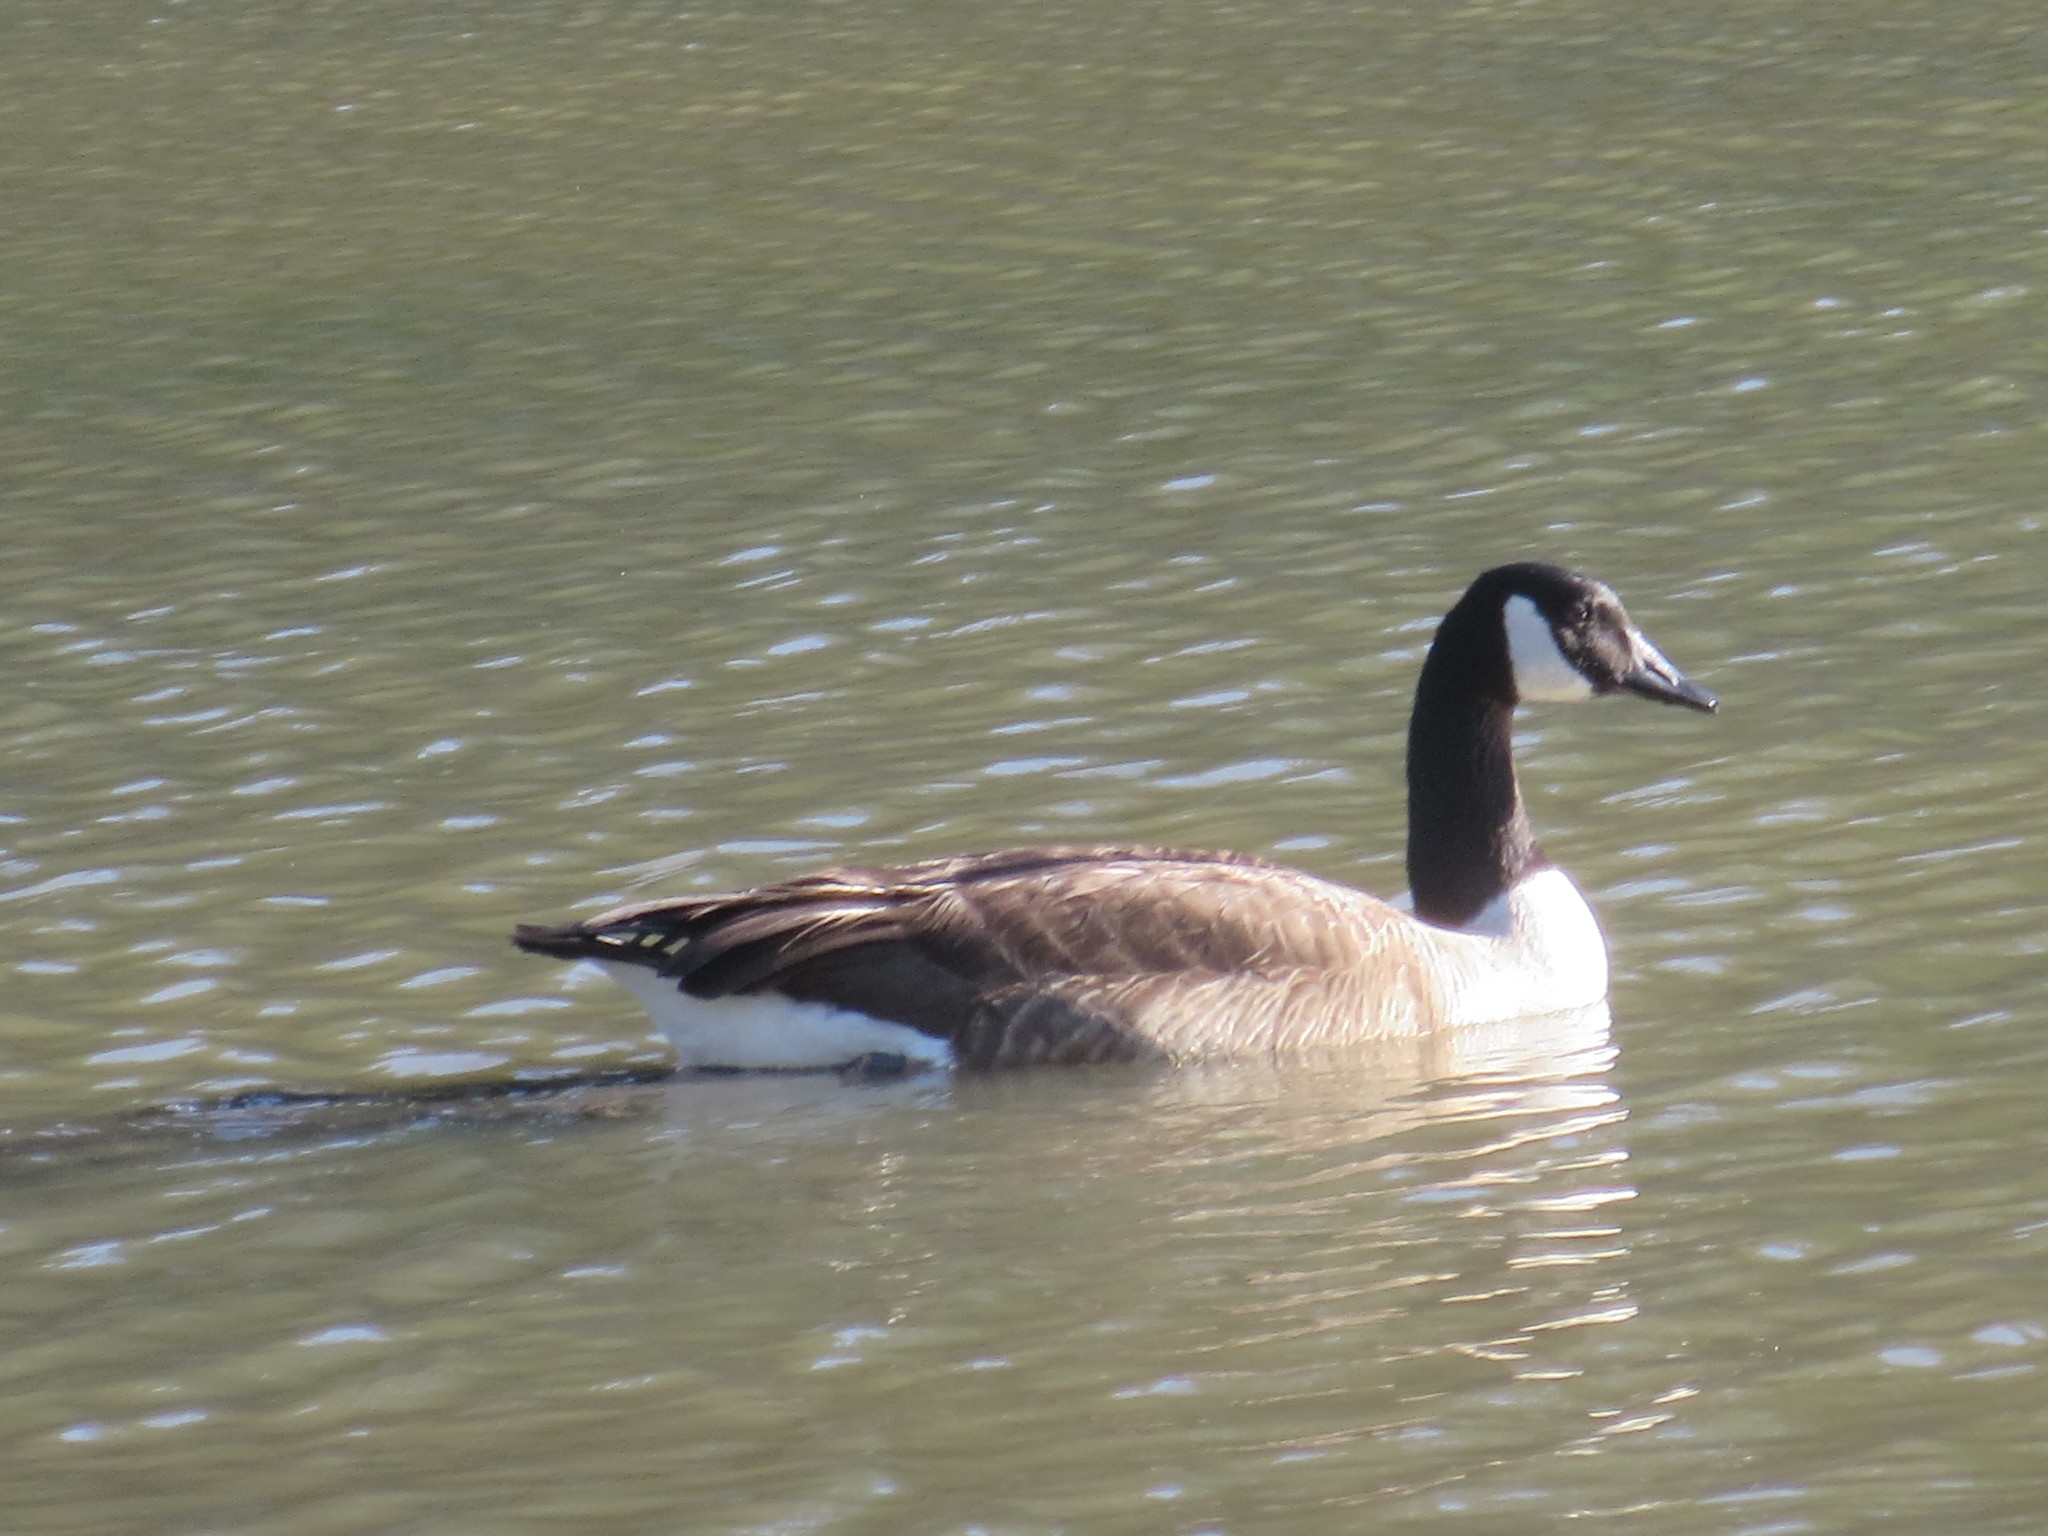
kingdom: Animalia
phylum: Chordata
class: Aves
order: Anseriformes
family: Anatidae
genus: Branta
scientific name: Branta canadensis
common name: Canada goose
